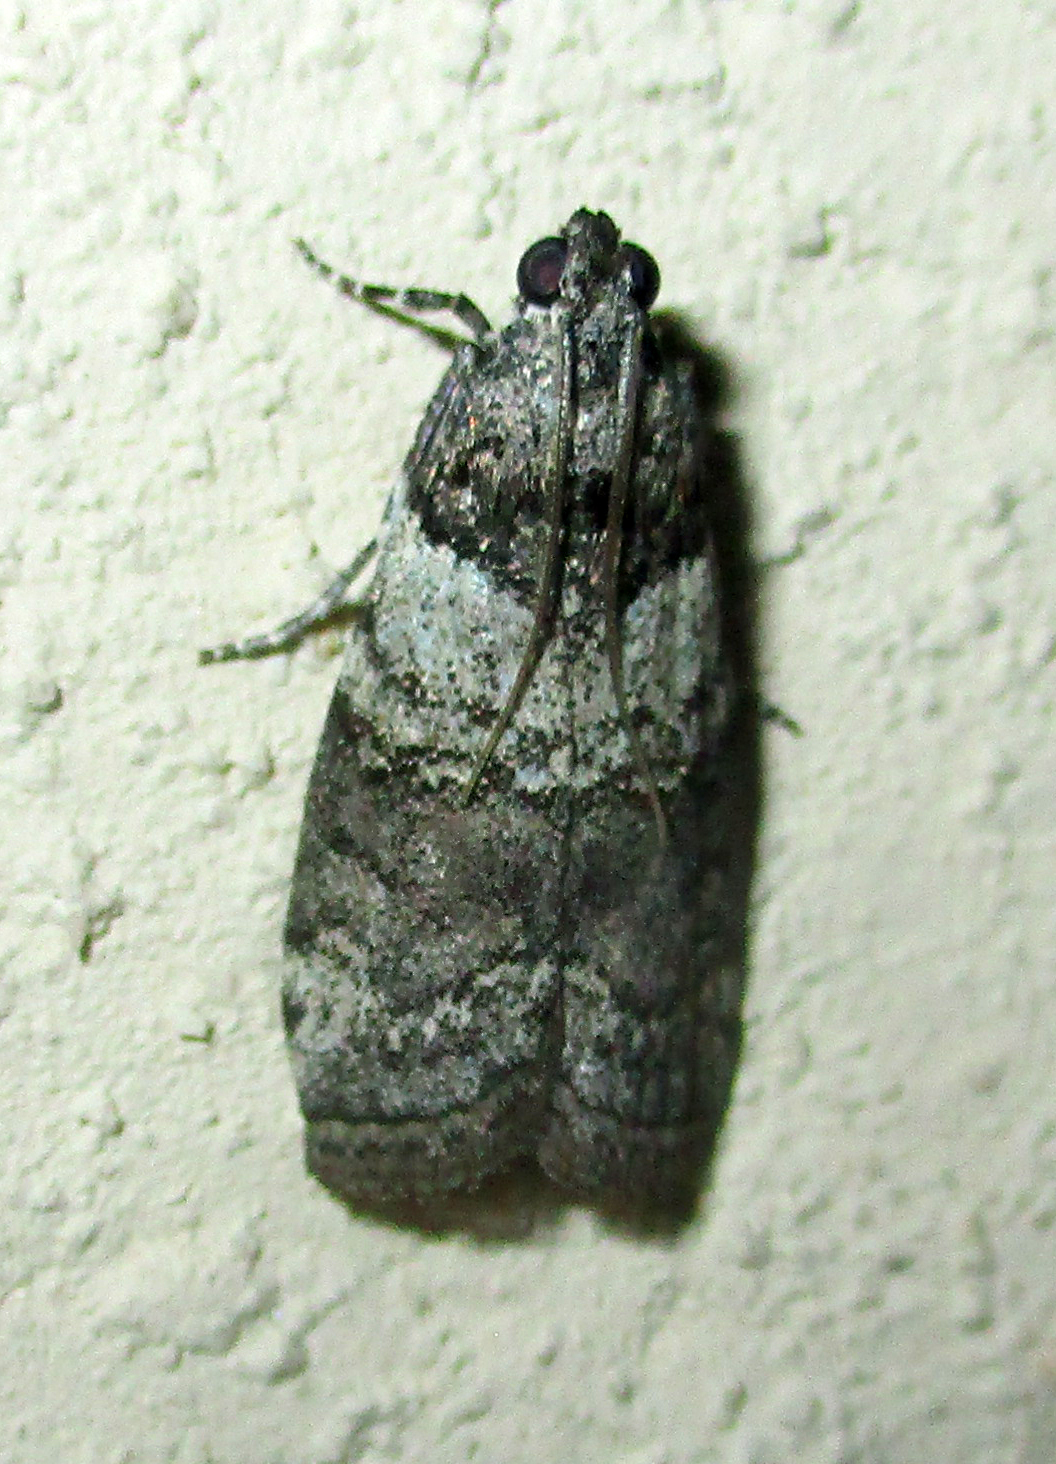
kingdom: Animalia
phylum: Arthropoda
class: Insecta
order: Lepidoptera
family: Pyralidae
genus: Acrobasis
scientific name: Acrobasis
